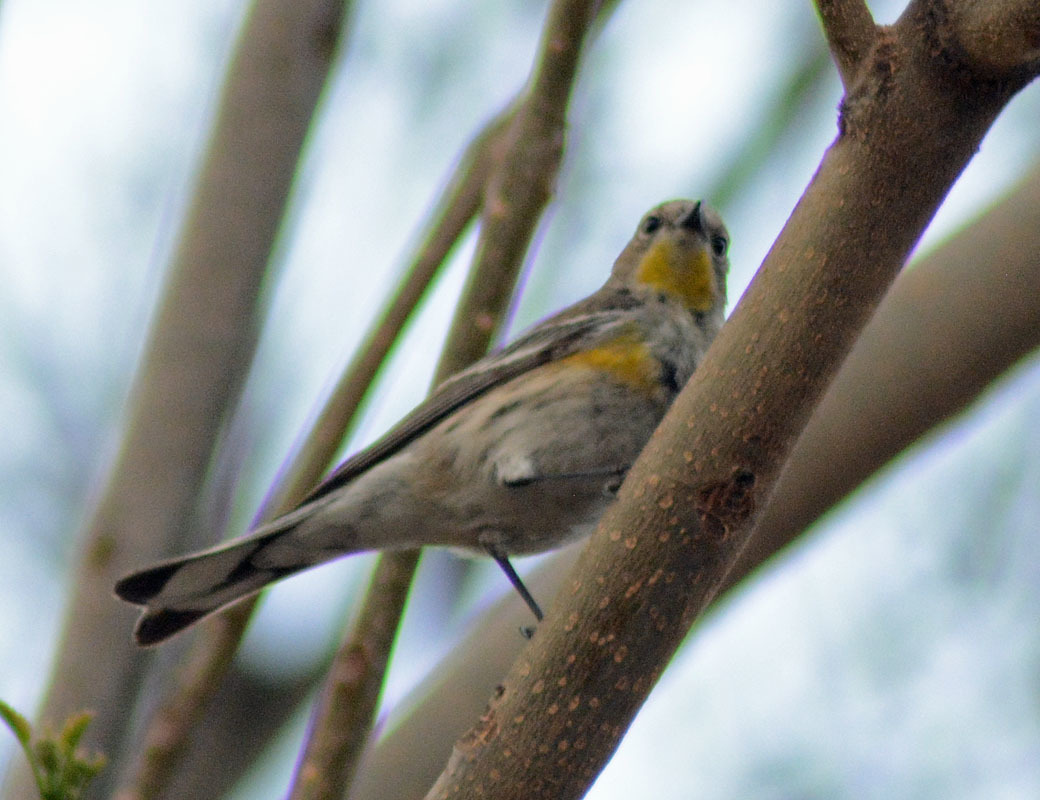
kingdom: Animalia
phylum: Chordata
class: Aves
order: Passeriformes
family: Parulidae
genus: Setophaga
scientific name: Setophaga auduboni
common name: Audubon's warbler
